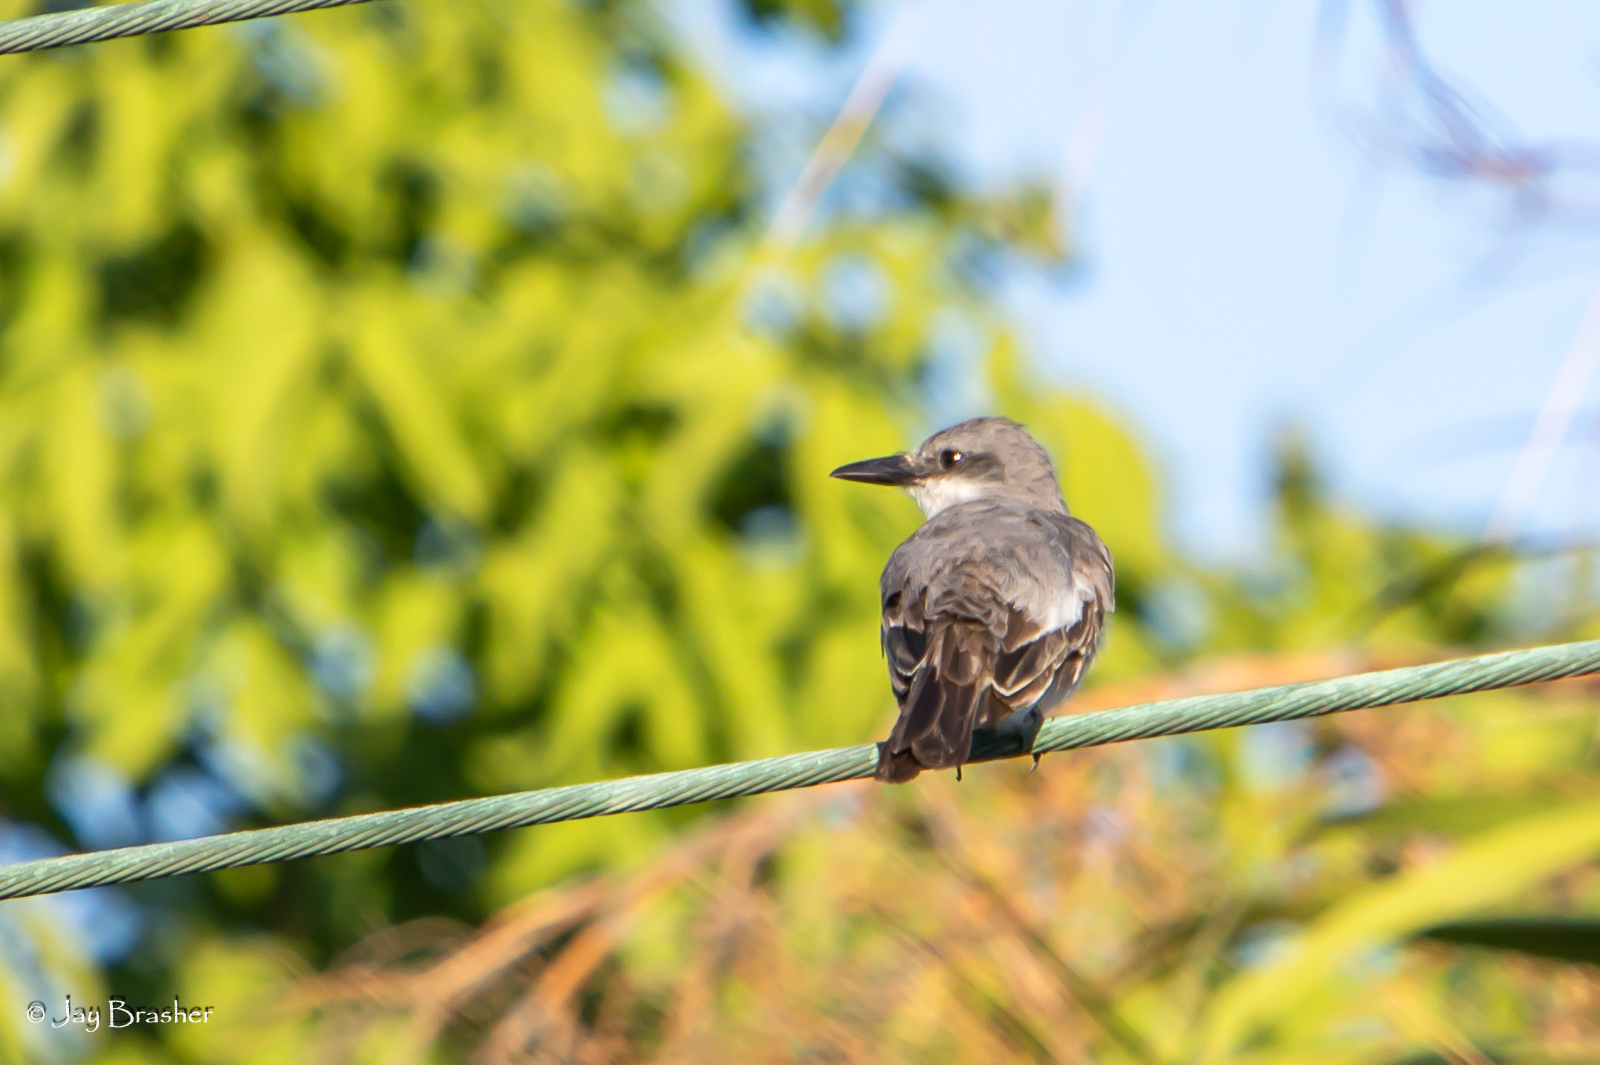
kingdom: Animalia
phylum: Chordata
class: Aves
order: Passeriformes
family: Tyrannidae
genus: Tyrannus
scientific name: Tyrannus dominicensis
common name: Gray kingbird
